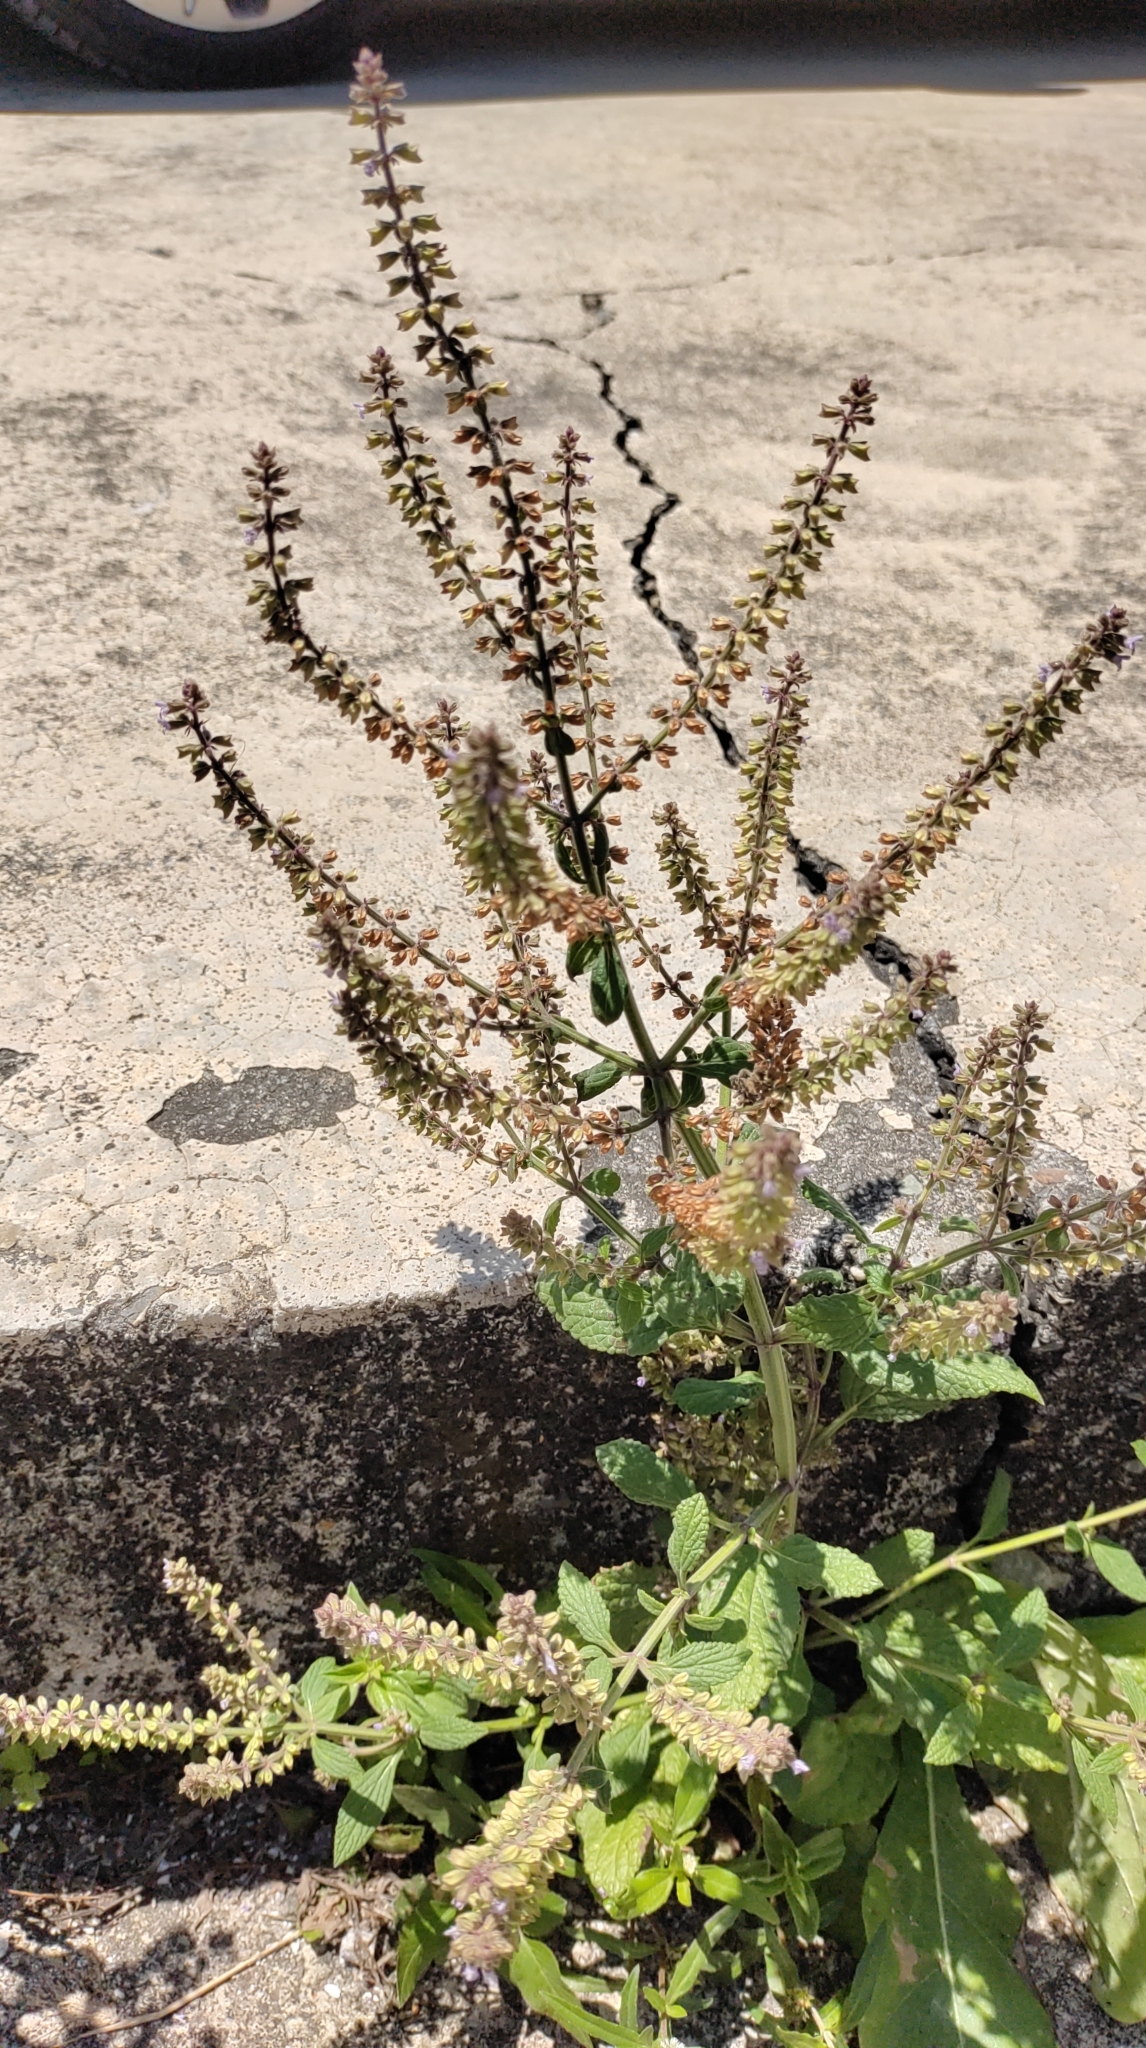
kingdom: Plantae
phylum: Tracheophyta
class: Magnoliopsida
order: Lamiales
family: Lamiaceae
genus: Salvia
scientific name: Salvia plebeia
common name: Australian sage
